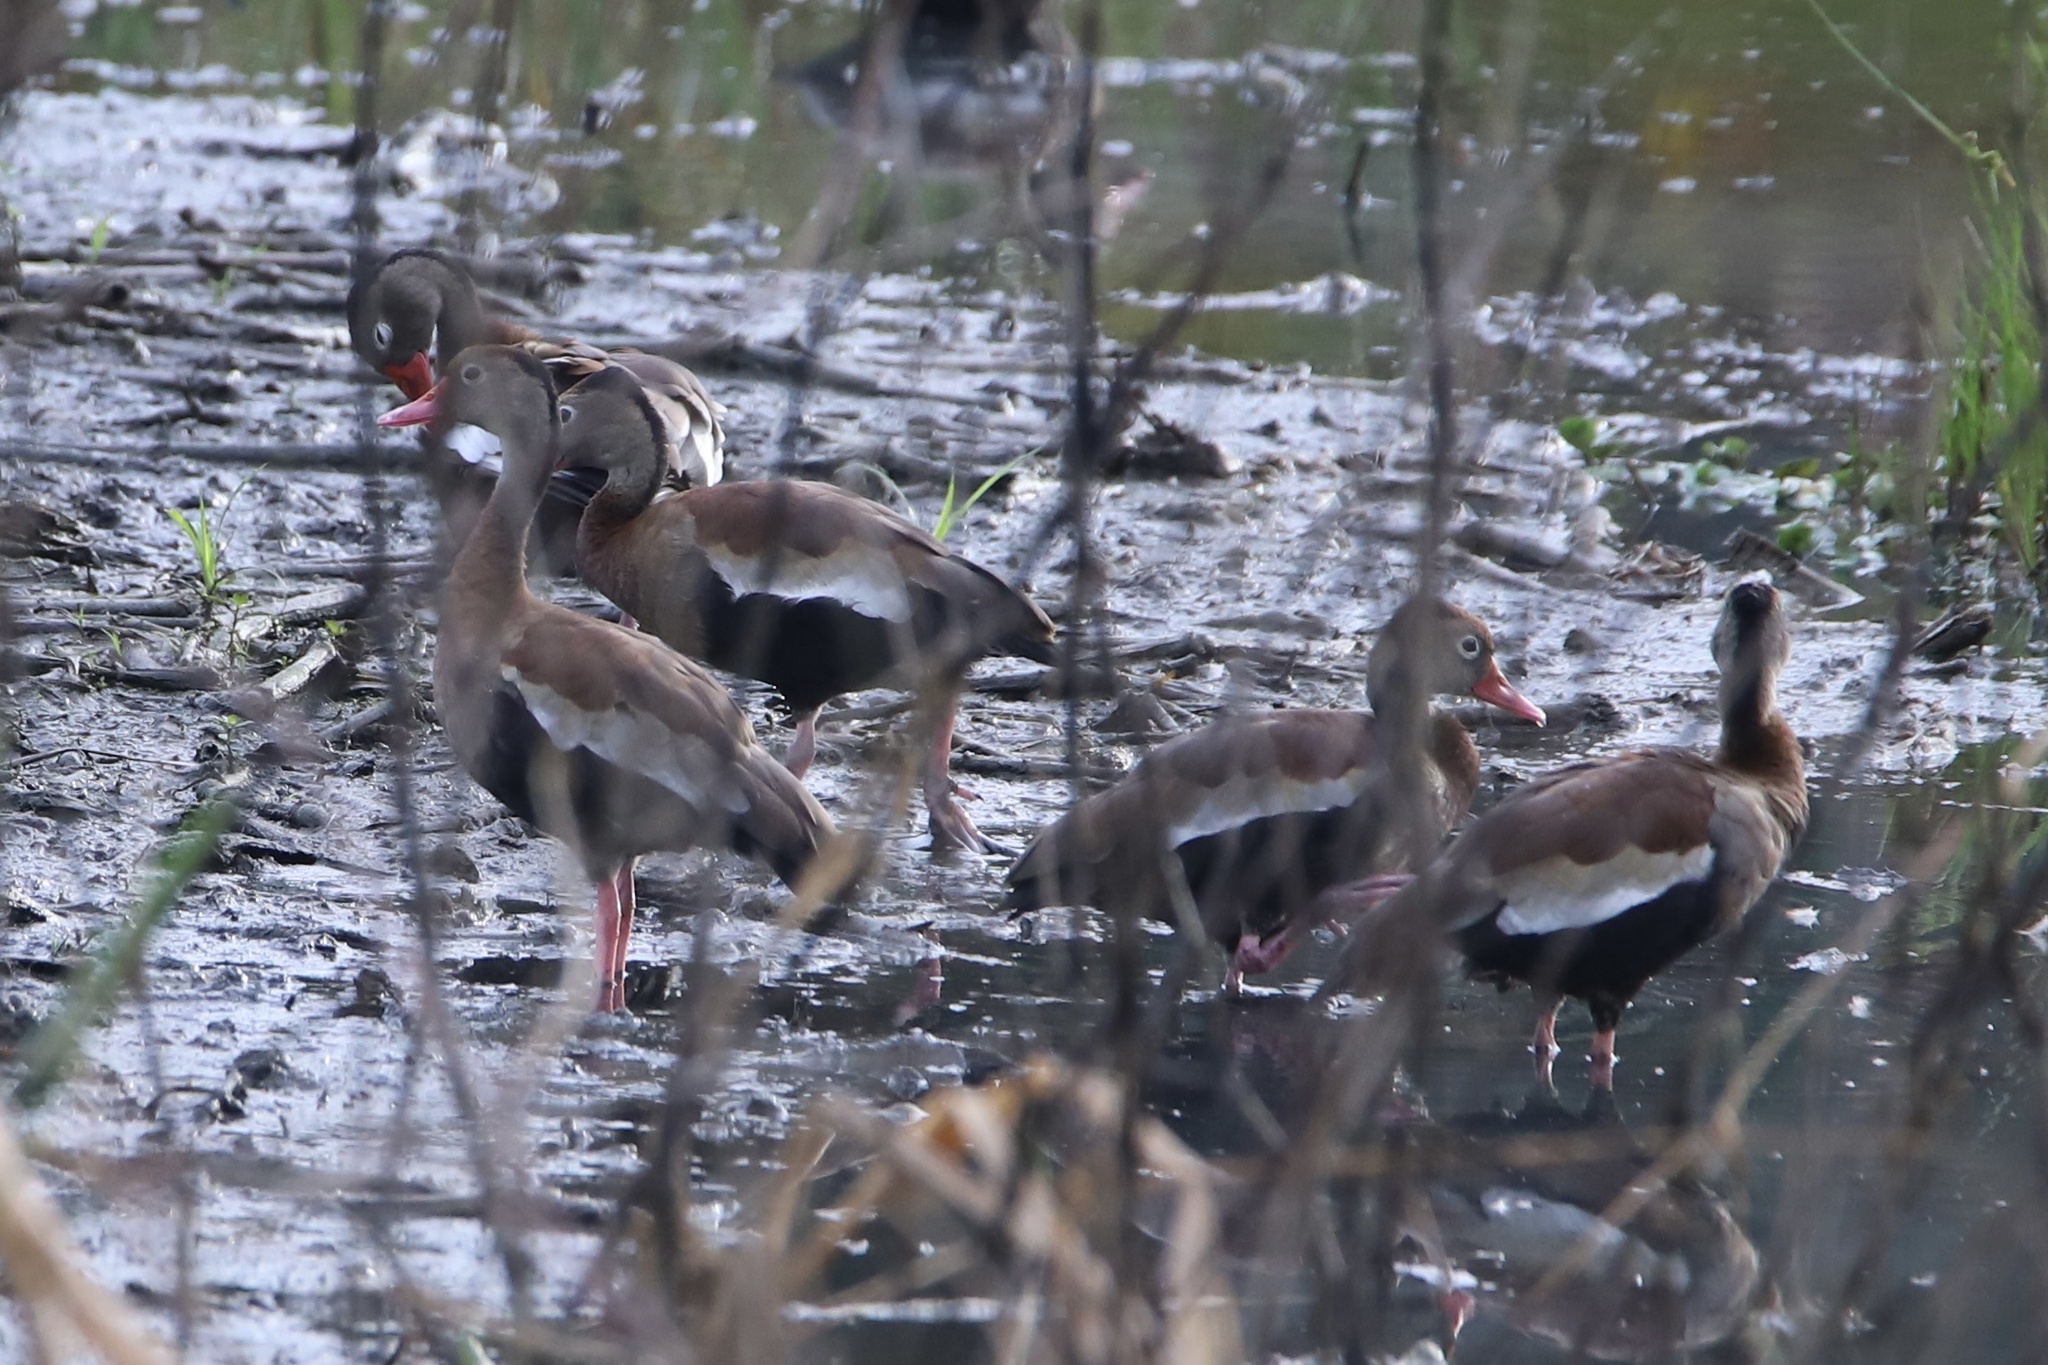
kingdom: Animalia
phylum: Chordata
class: Aves
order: Anseriformes
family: Anatidae
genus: Dendrocygna
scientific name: Dendrocygna autumnalis
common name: Black-bellied whistling duck
